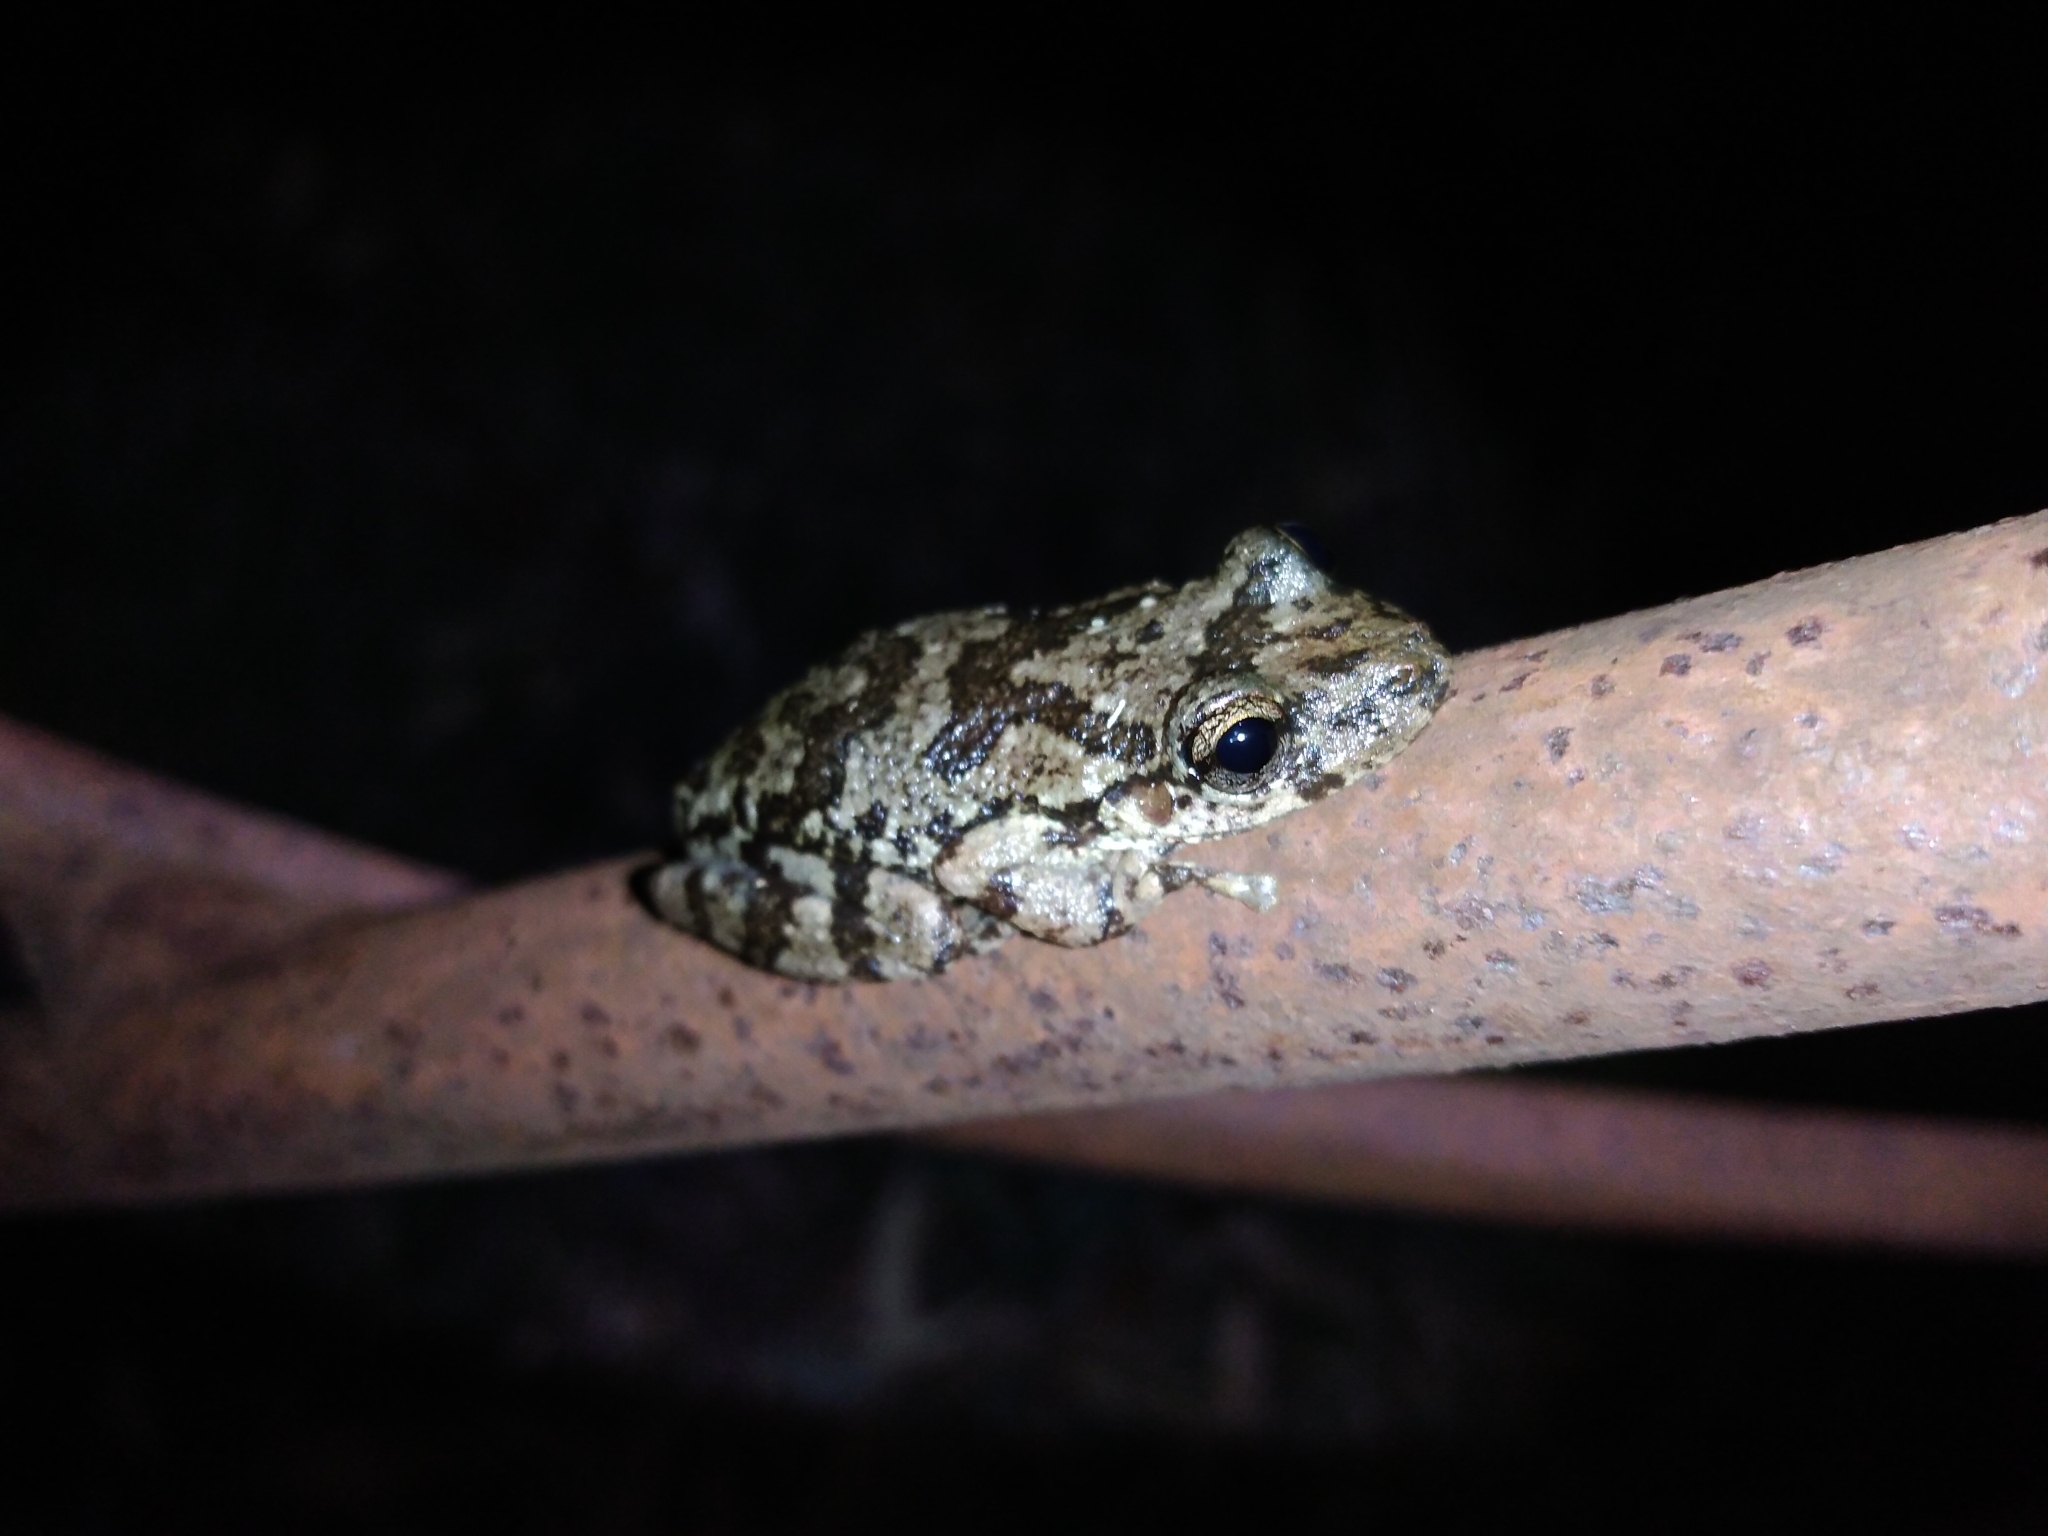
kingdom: Animalia
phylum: Chordata
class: Amphibia
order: Anura
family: Hylidae
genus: Scinax
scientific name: Scinax granulatus
